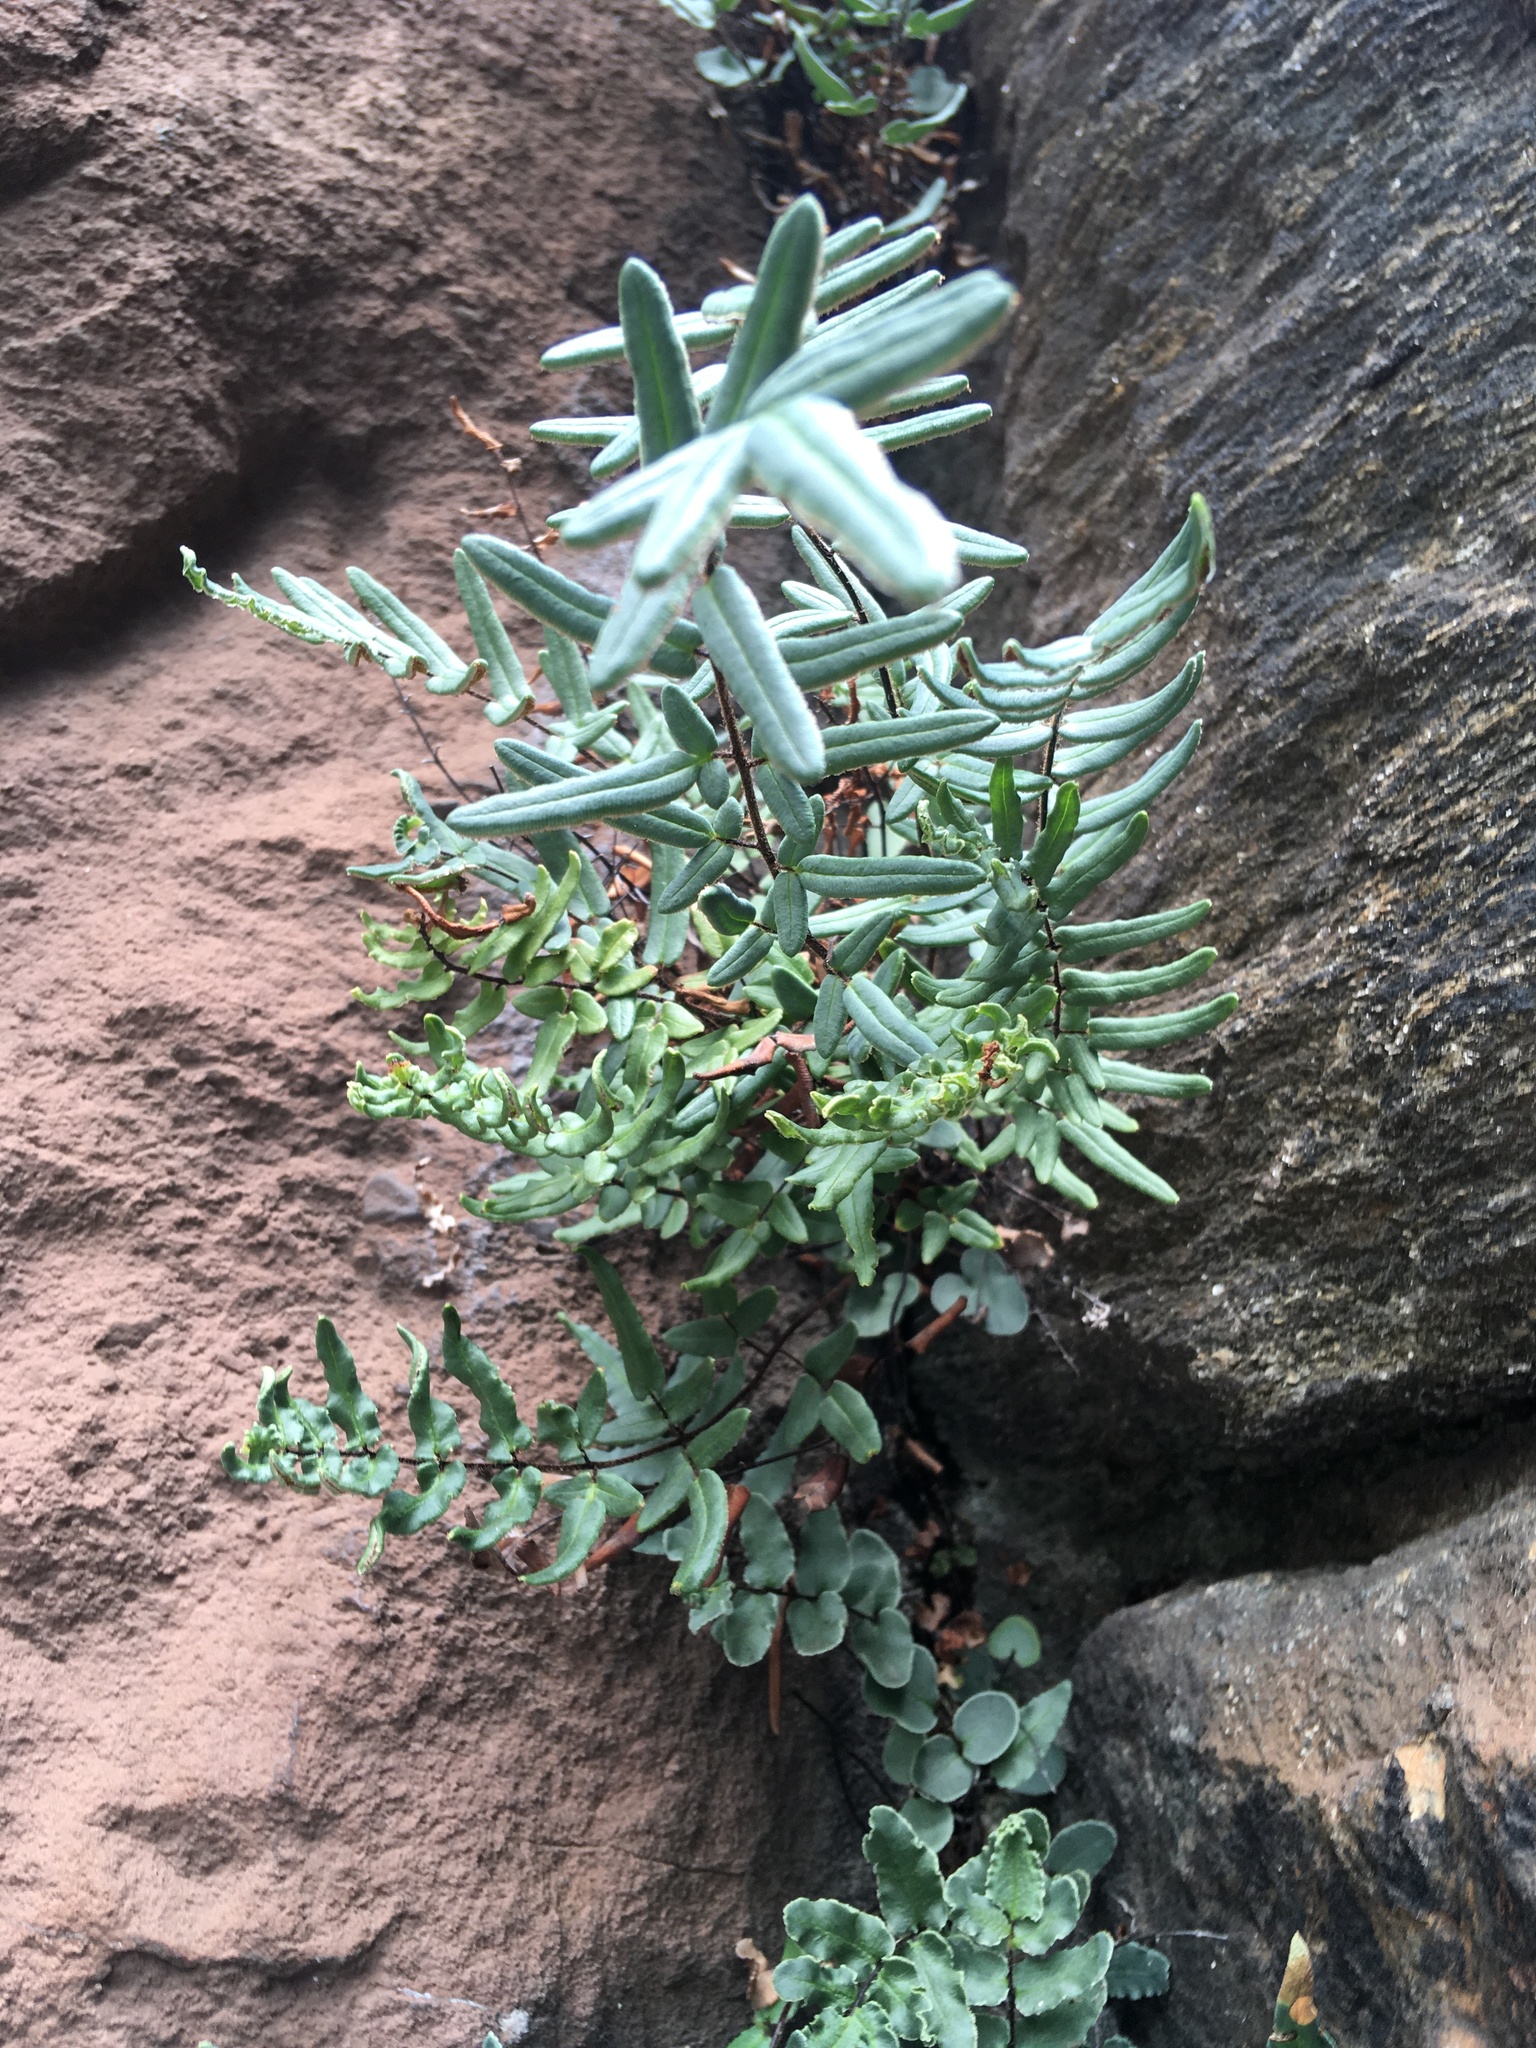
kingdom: Plantae
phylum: Tracheophyta
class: Polypodiopsida
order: Polypodiales
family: Pteridaceae
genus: Pellaea
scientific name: Pellaea atropurpurea
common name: Hairy cliffbrake
